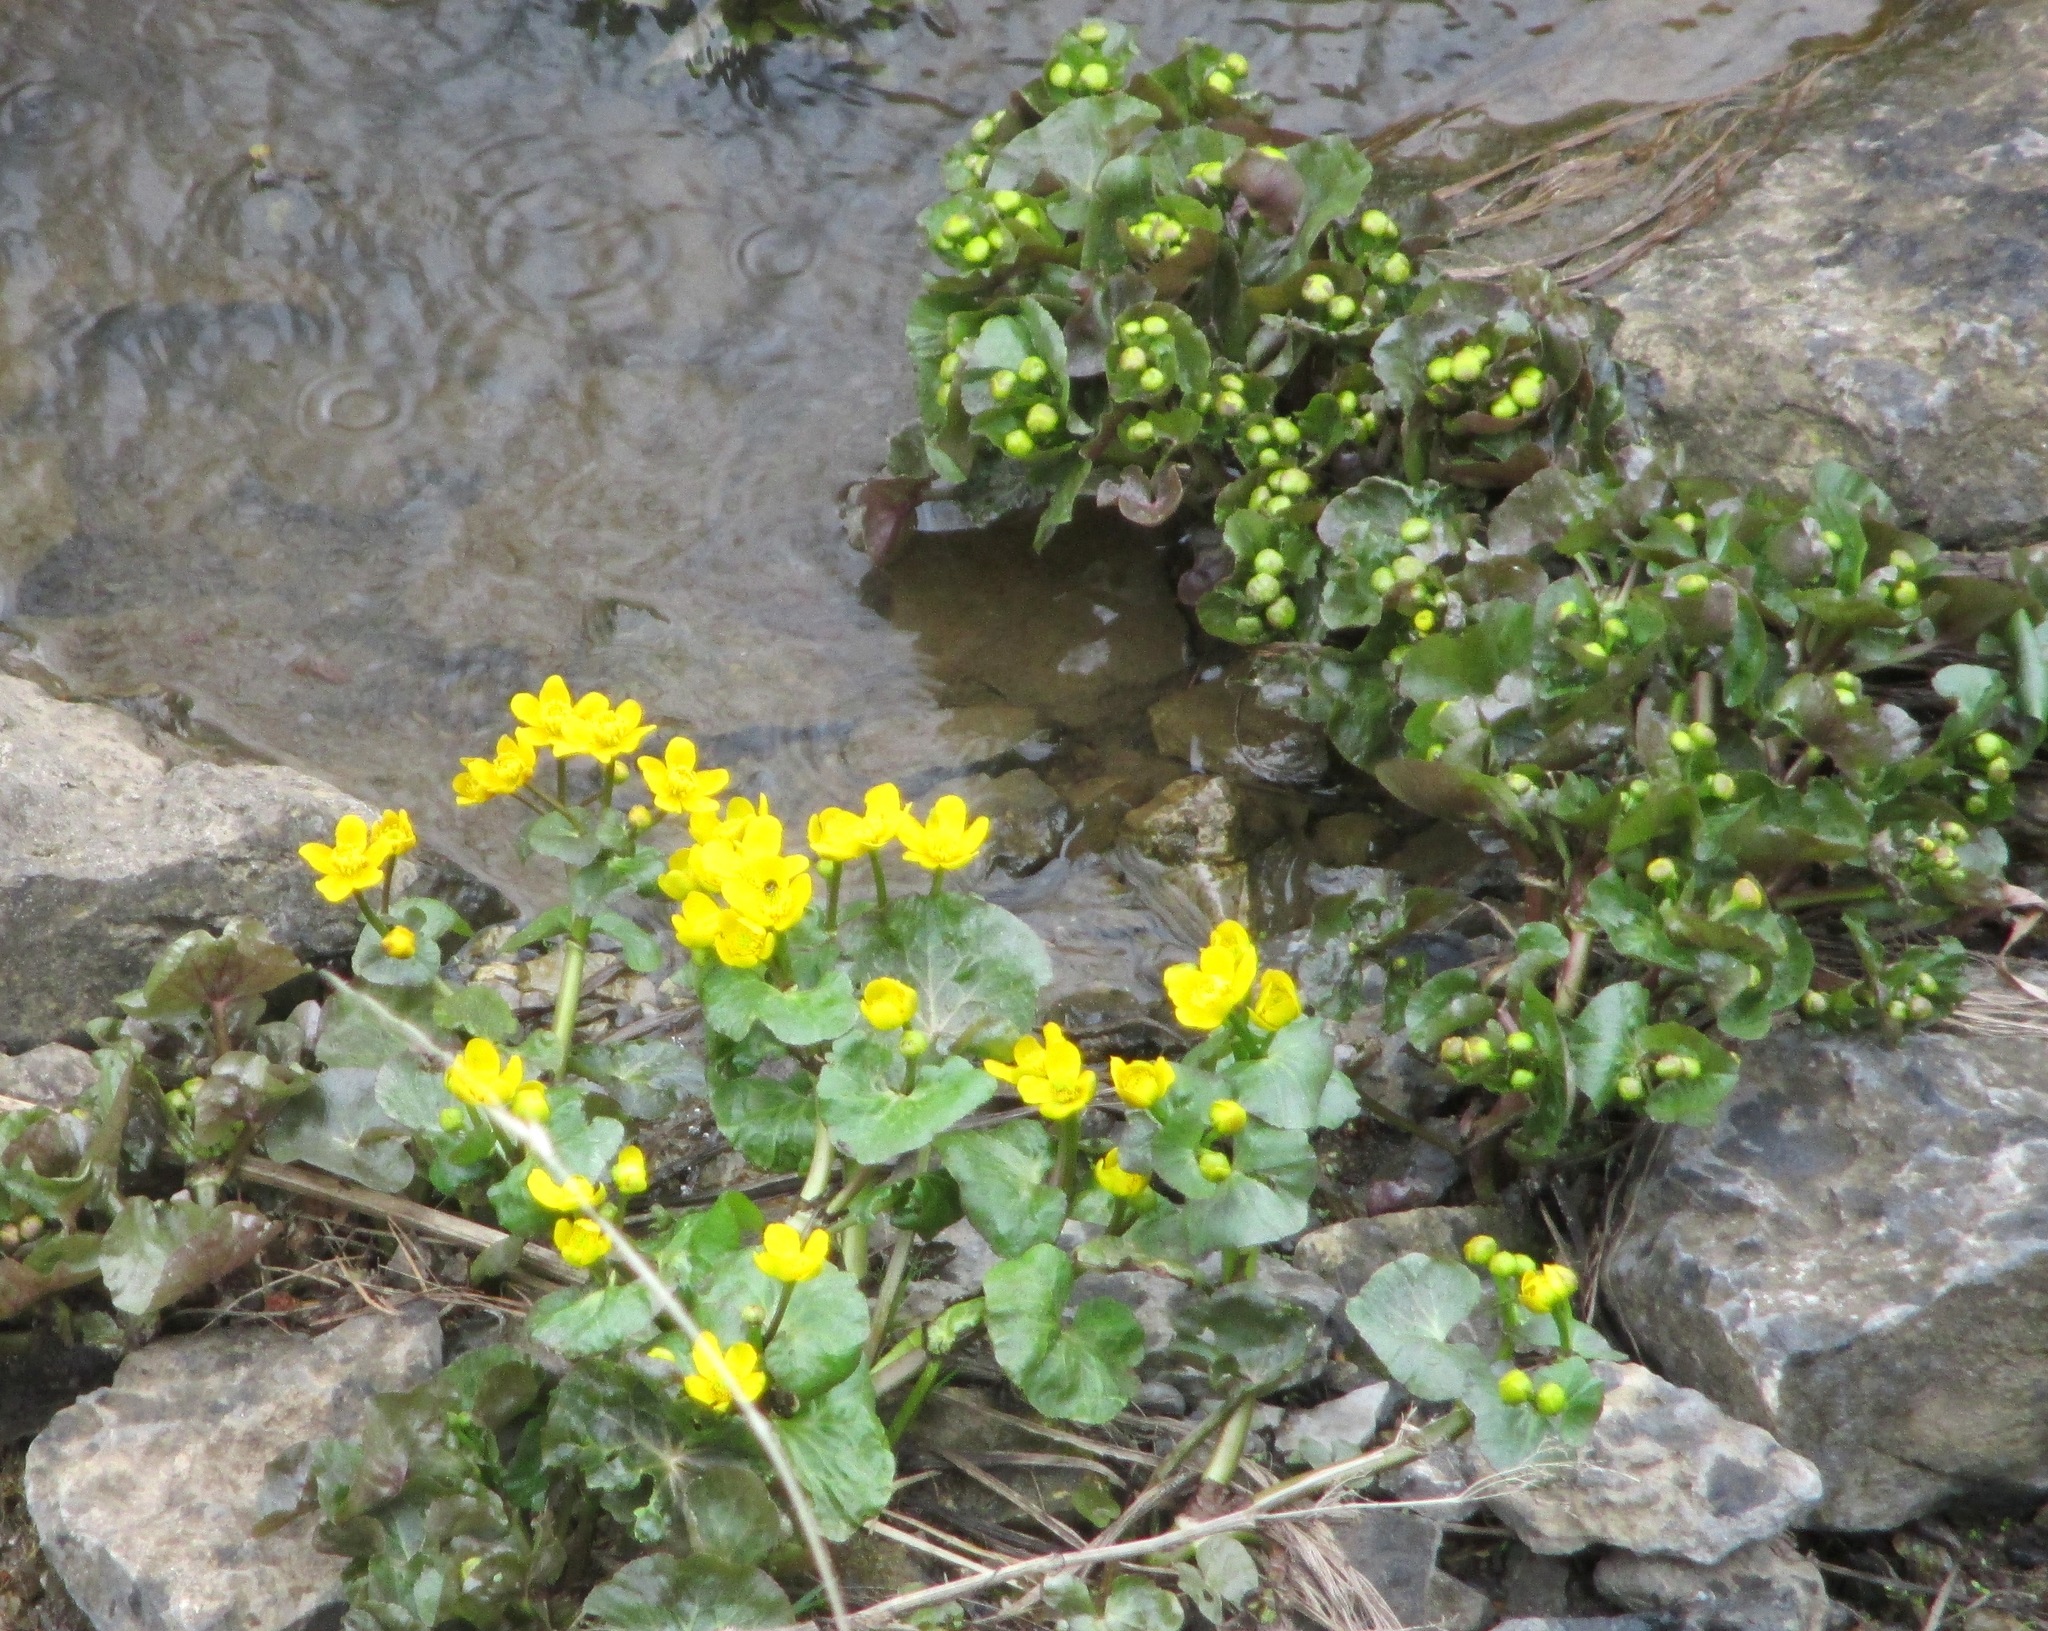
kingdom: Plantae
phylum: Tracheophyta
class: Magnoliopsida
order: Ranunculales
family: Ranunculaceae
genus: Caltha
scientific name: Caltha palustris
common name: Marsh marigold
